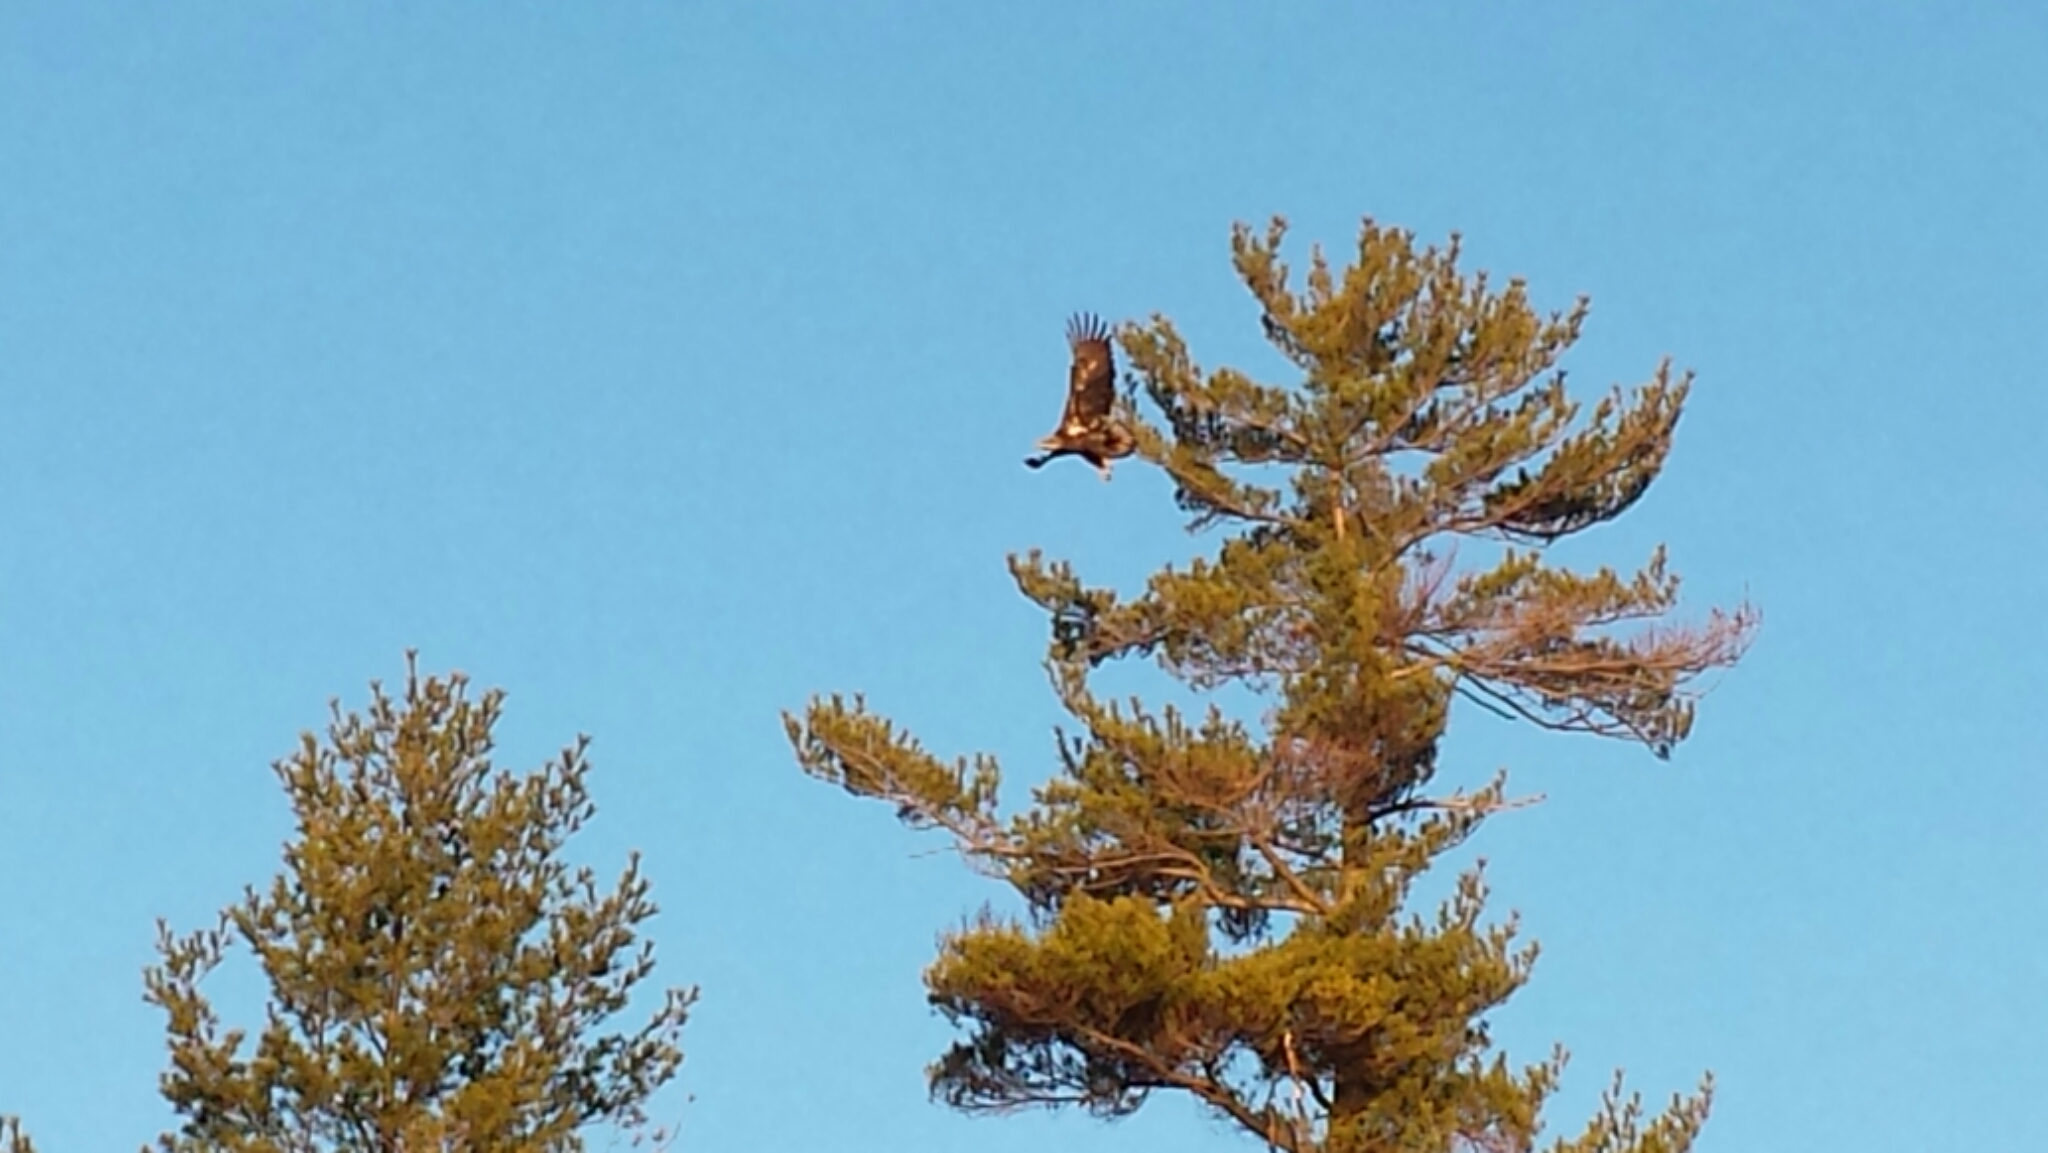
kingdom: Animalia
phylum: Chordata
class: Aves
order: Accipitriformes
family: Accipitridae
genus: Haliaeetus
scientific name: Haliaeetus leucocephalus
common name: Bald eagle
